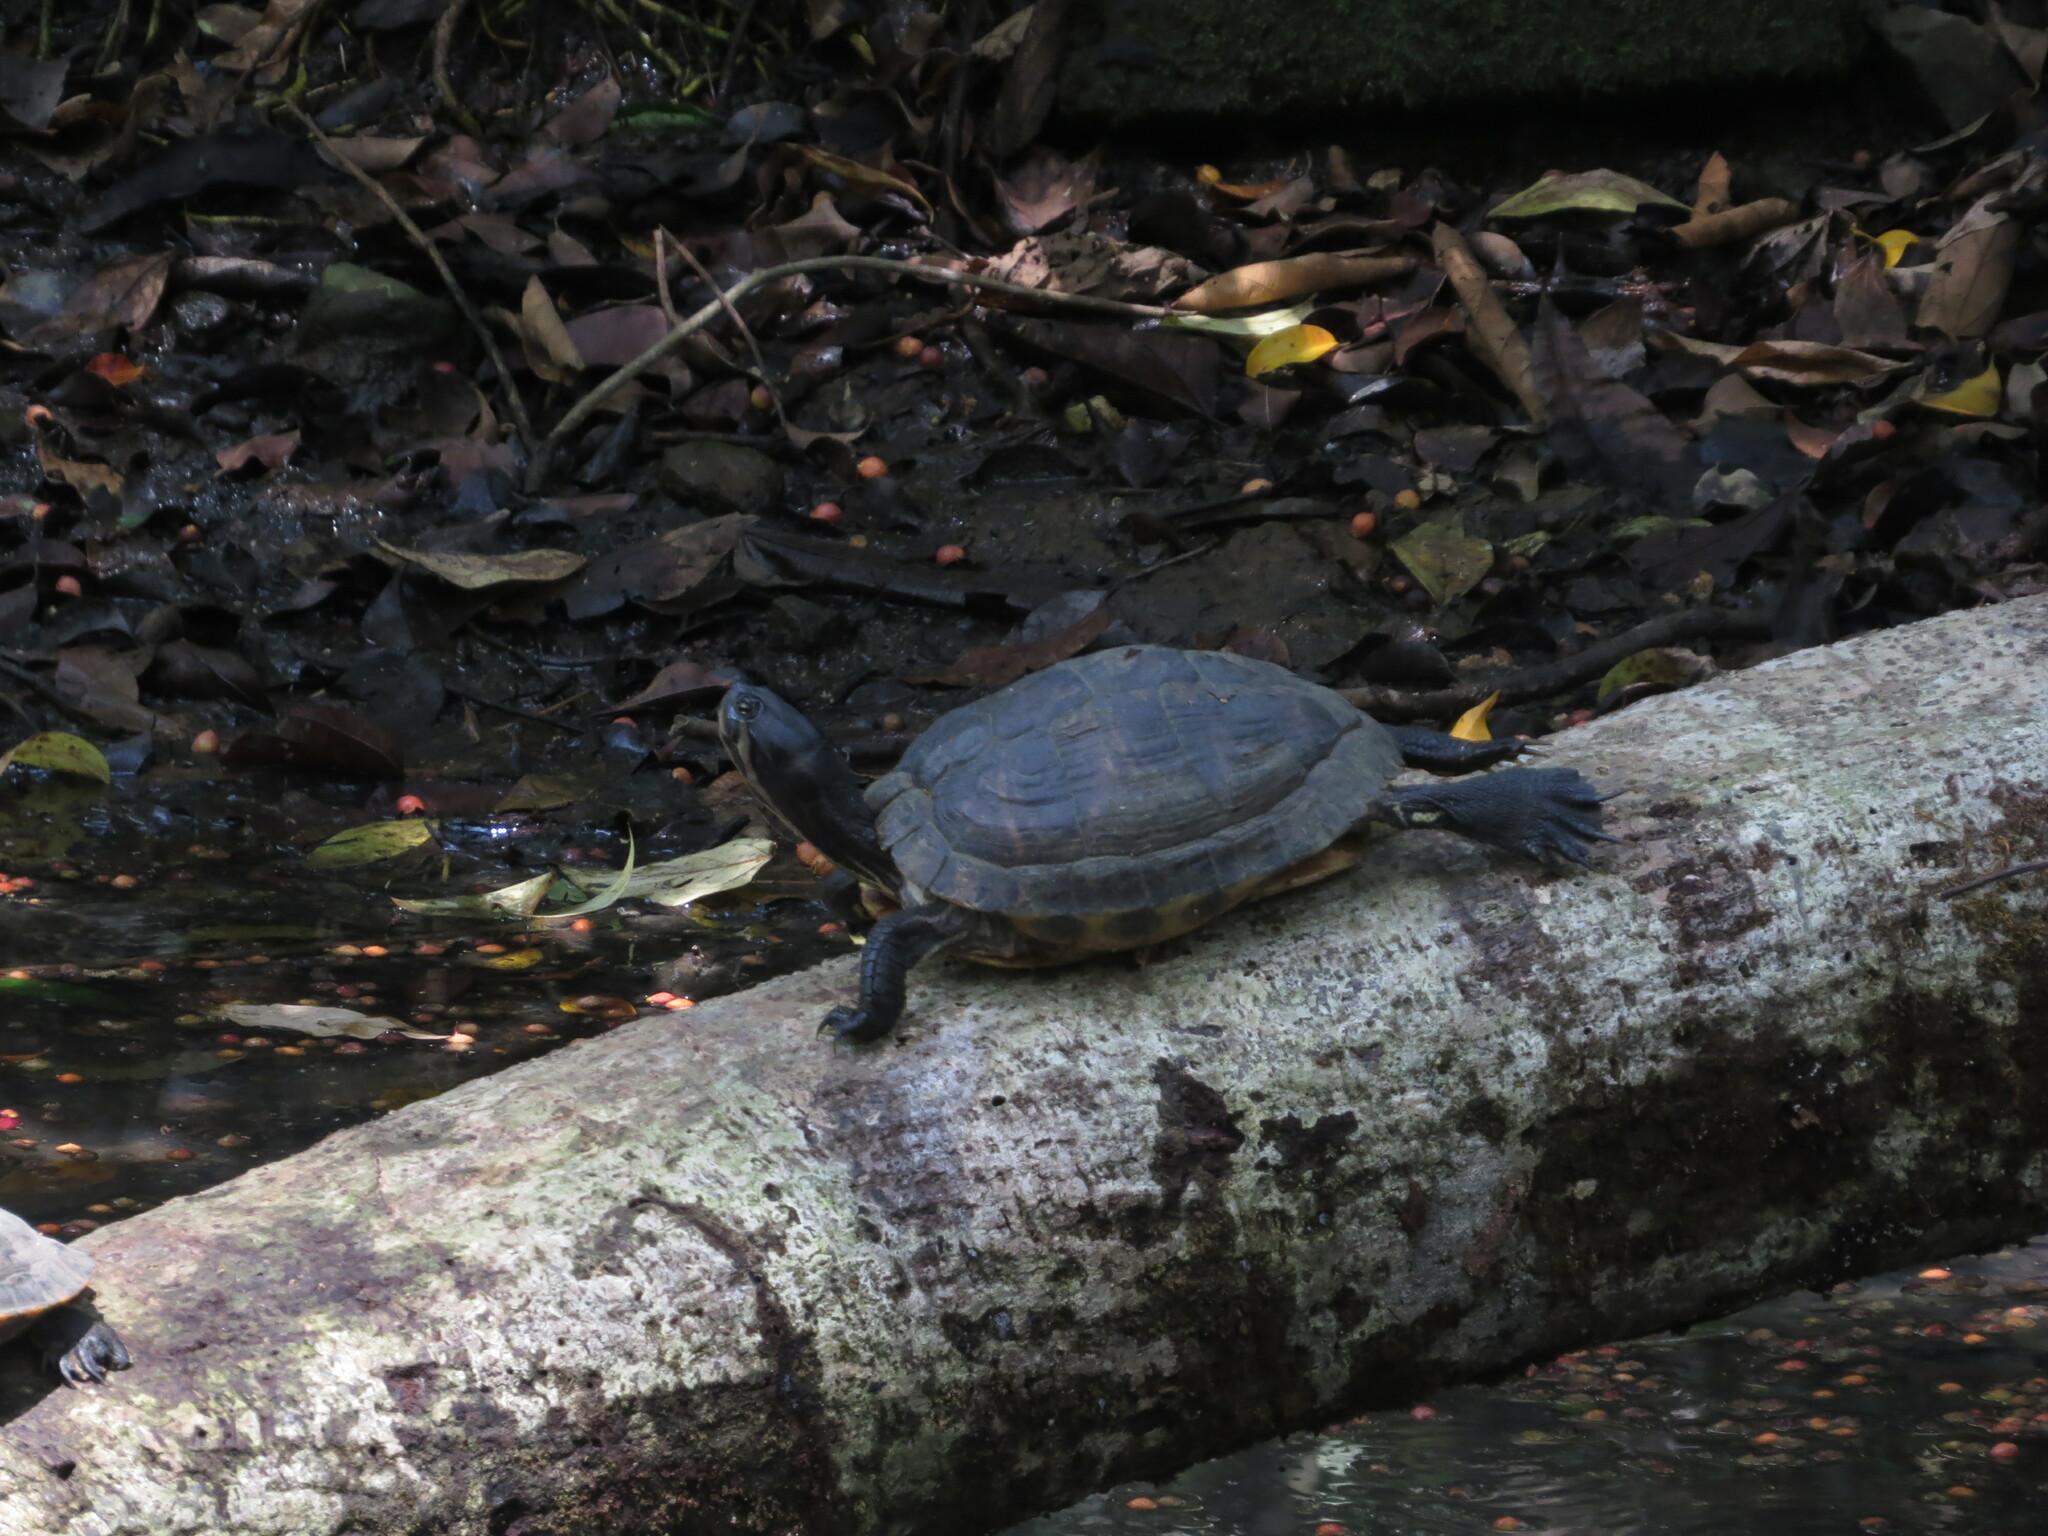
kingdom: Animalia
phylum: Chordata
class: Testudines
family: Emydidae
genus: Trachemys
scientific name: Trachemys venusta
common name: Mesoamerican slider
